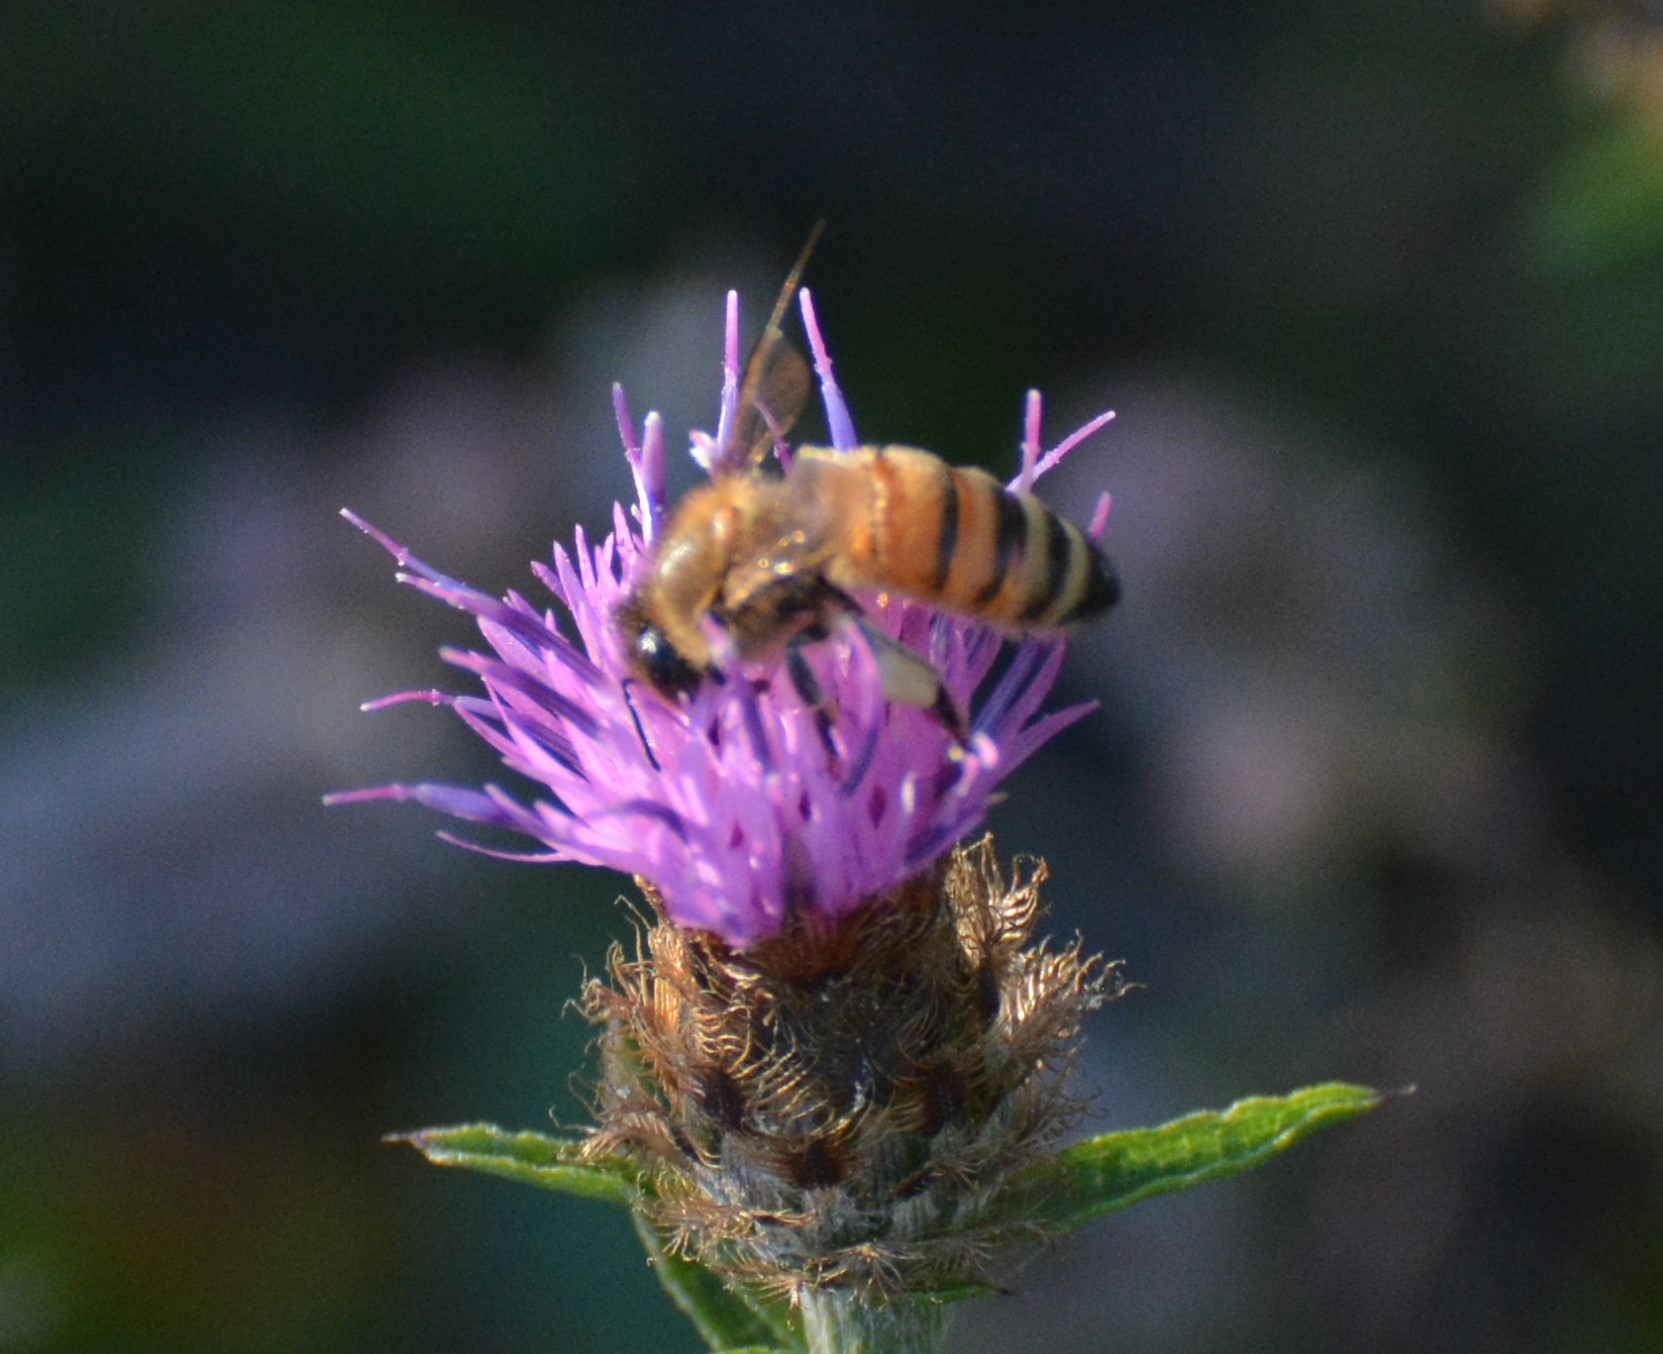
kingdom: Plantae
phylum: Tracheophyta
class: Magnoliopsida
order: Asterales
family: Asteraceae
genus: Centaurea
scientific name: Centaurea nigra
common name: Lesser knapweed
